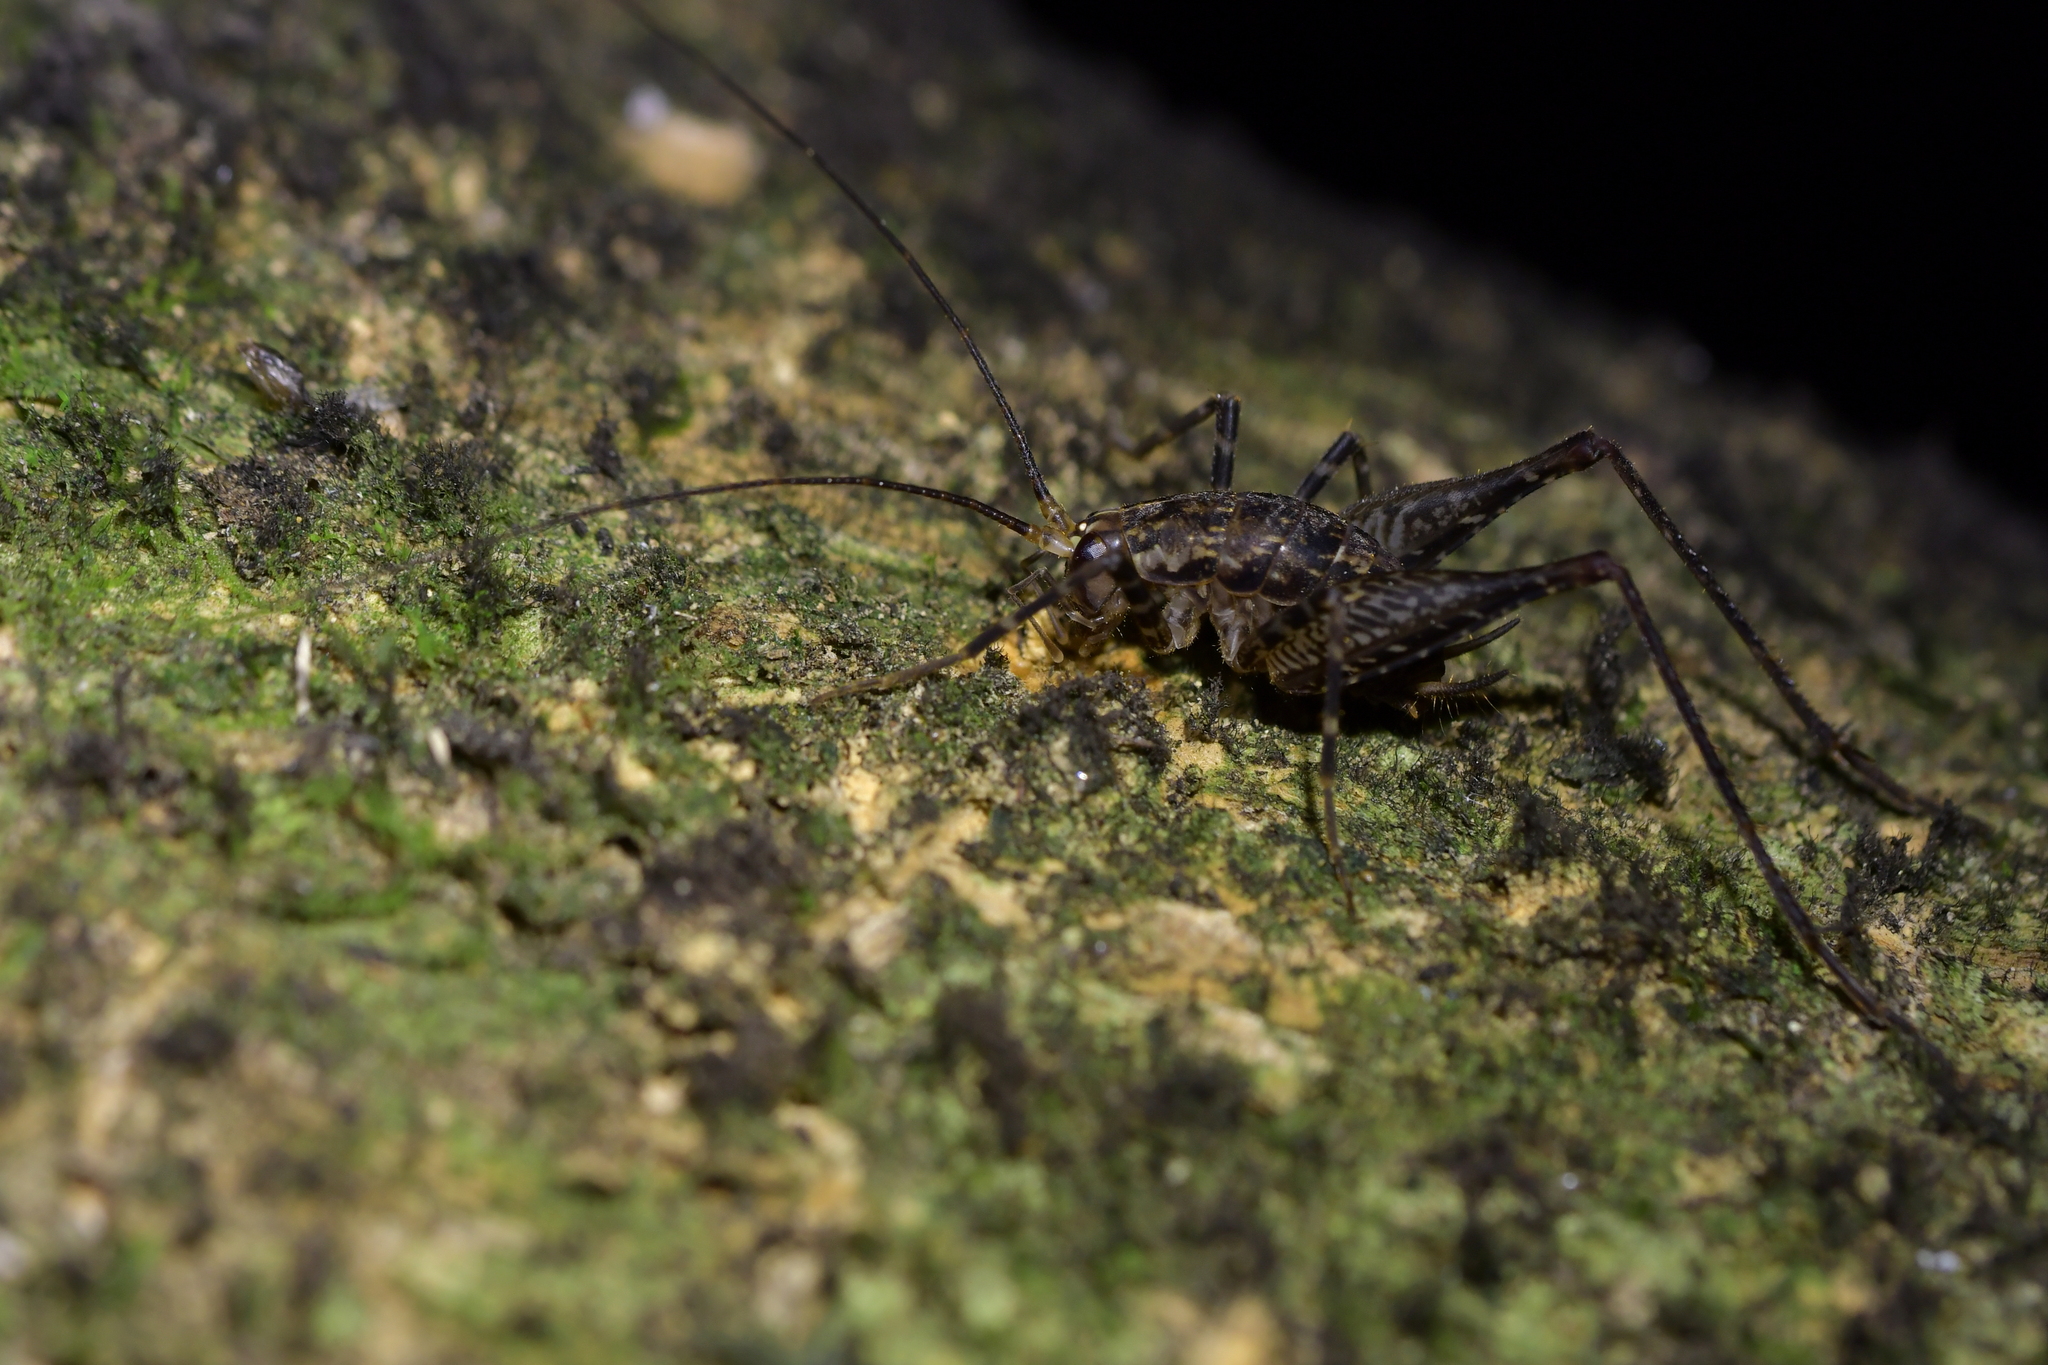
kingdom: Animalia
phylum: Arthropoda
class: Insecta
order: Orthoptera
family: Rhaphidophoridae
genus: Pleioplectron
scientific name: Pleioplectron hudsoni
